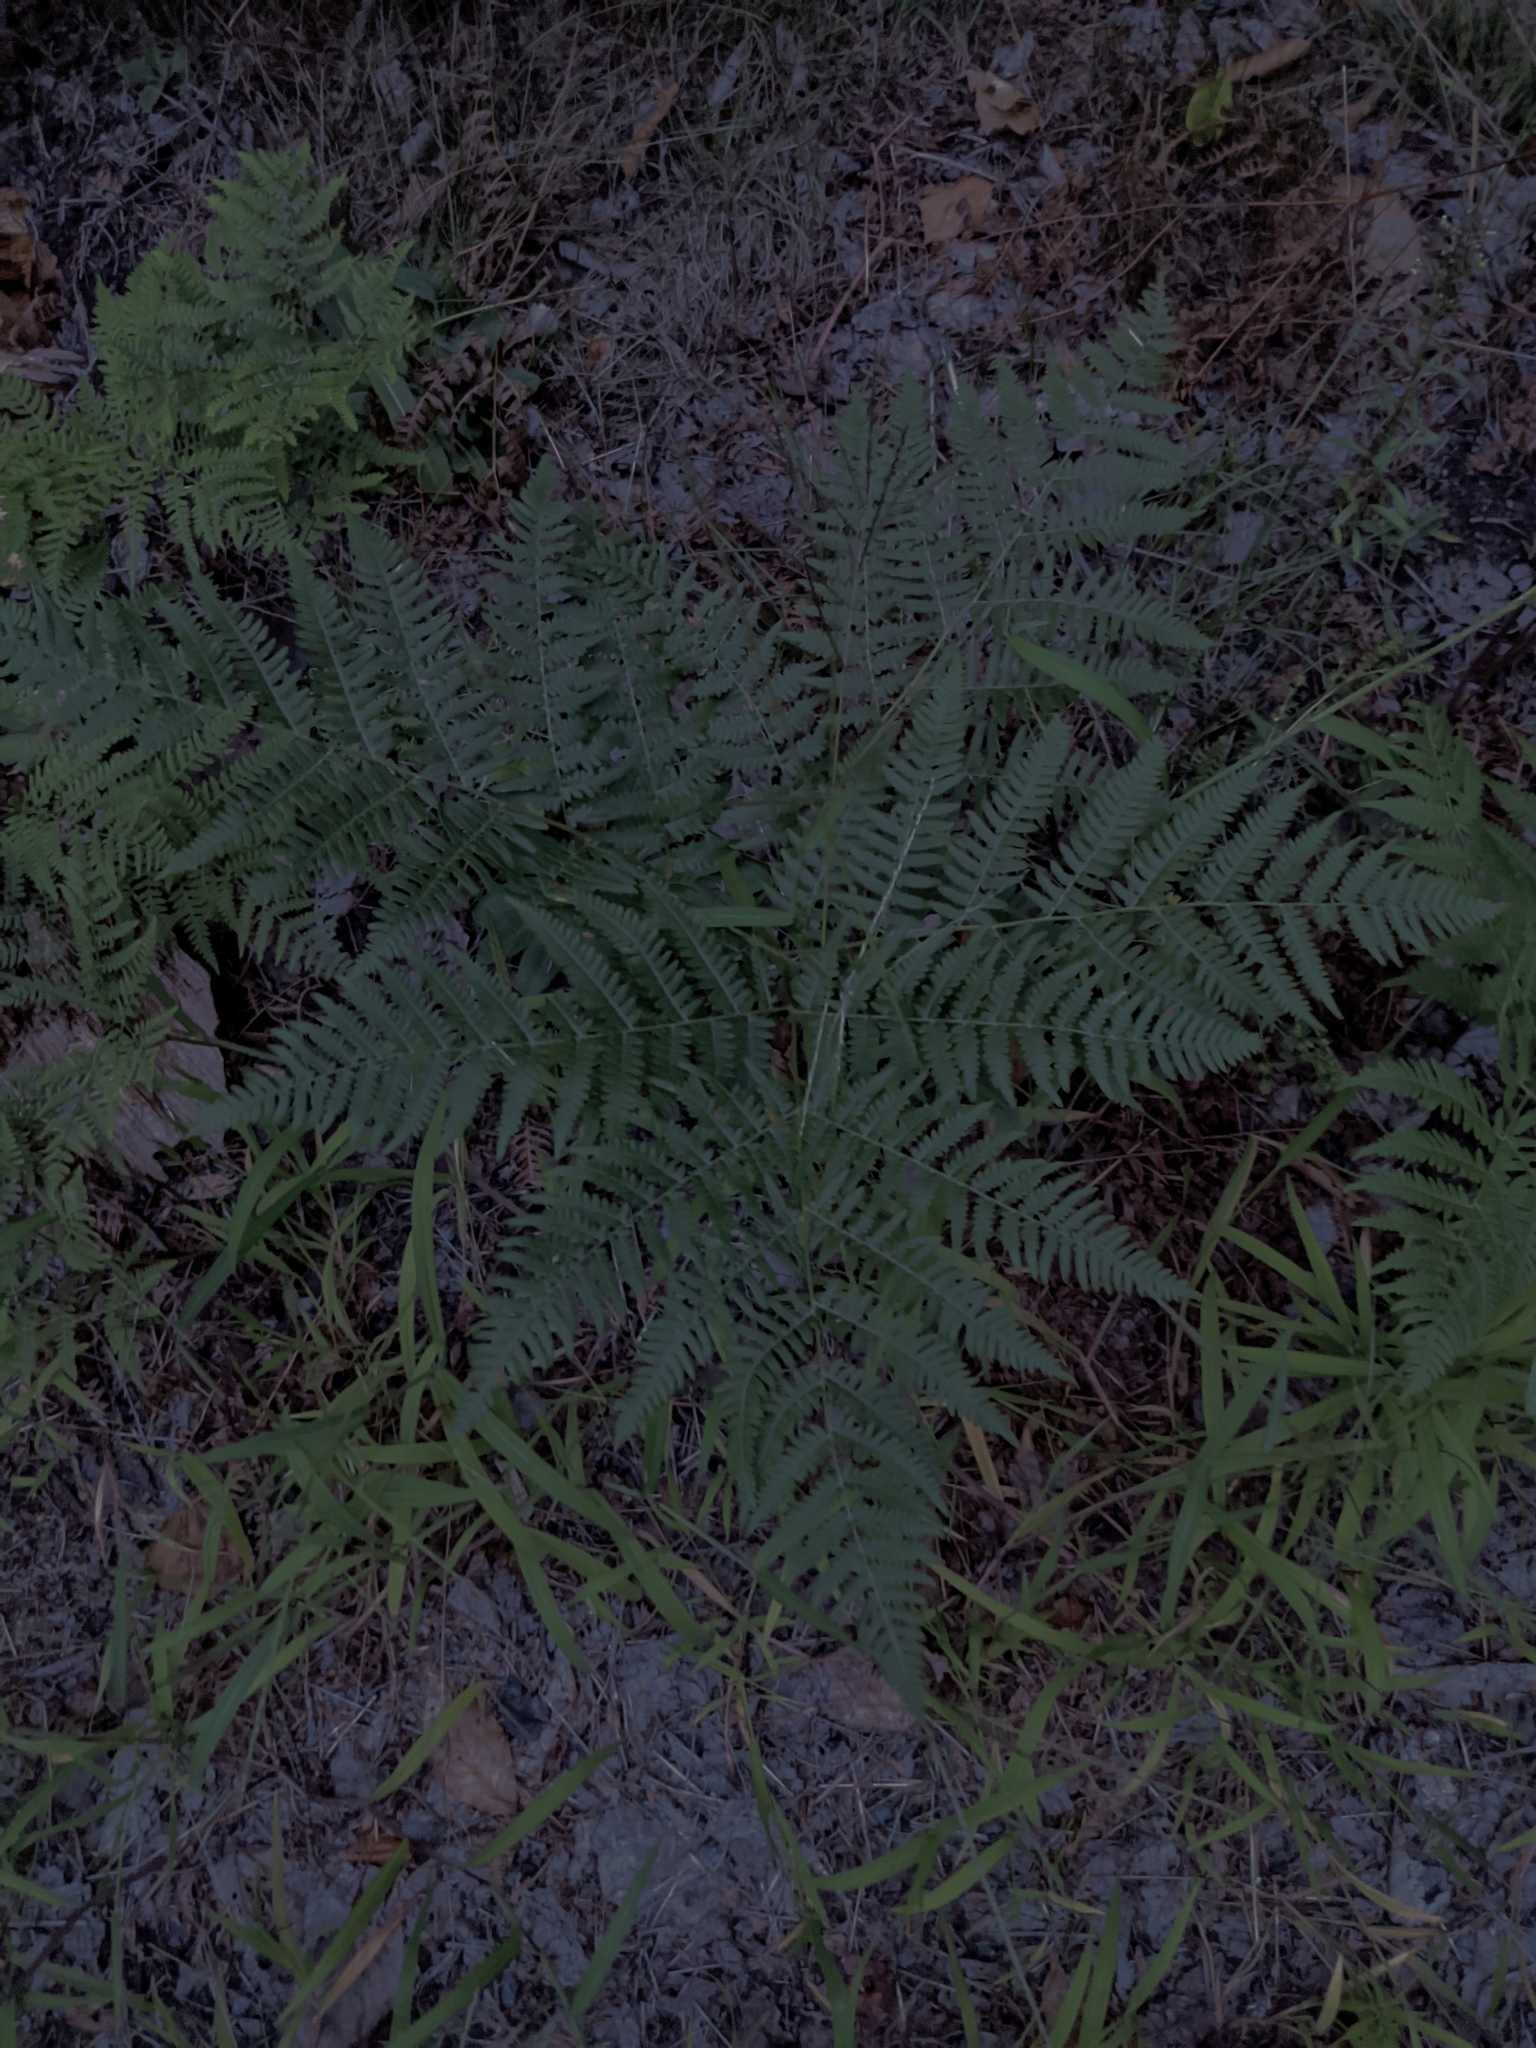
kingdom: Plantae
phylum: Tracheophyta
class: Polypodiopsida
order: Polypodiales
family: Dennstaedtiaceae
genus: Pteridium
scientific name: Pteridium aquilinum
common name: Bracken
